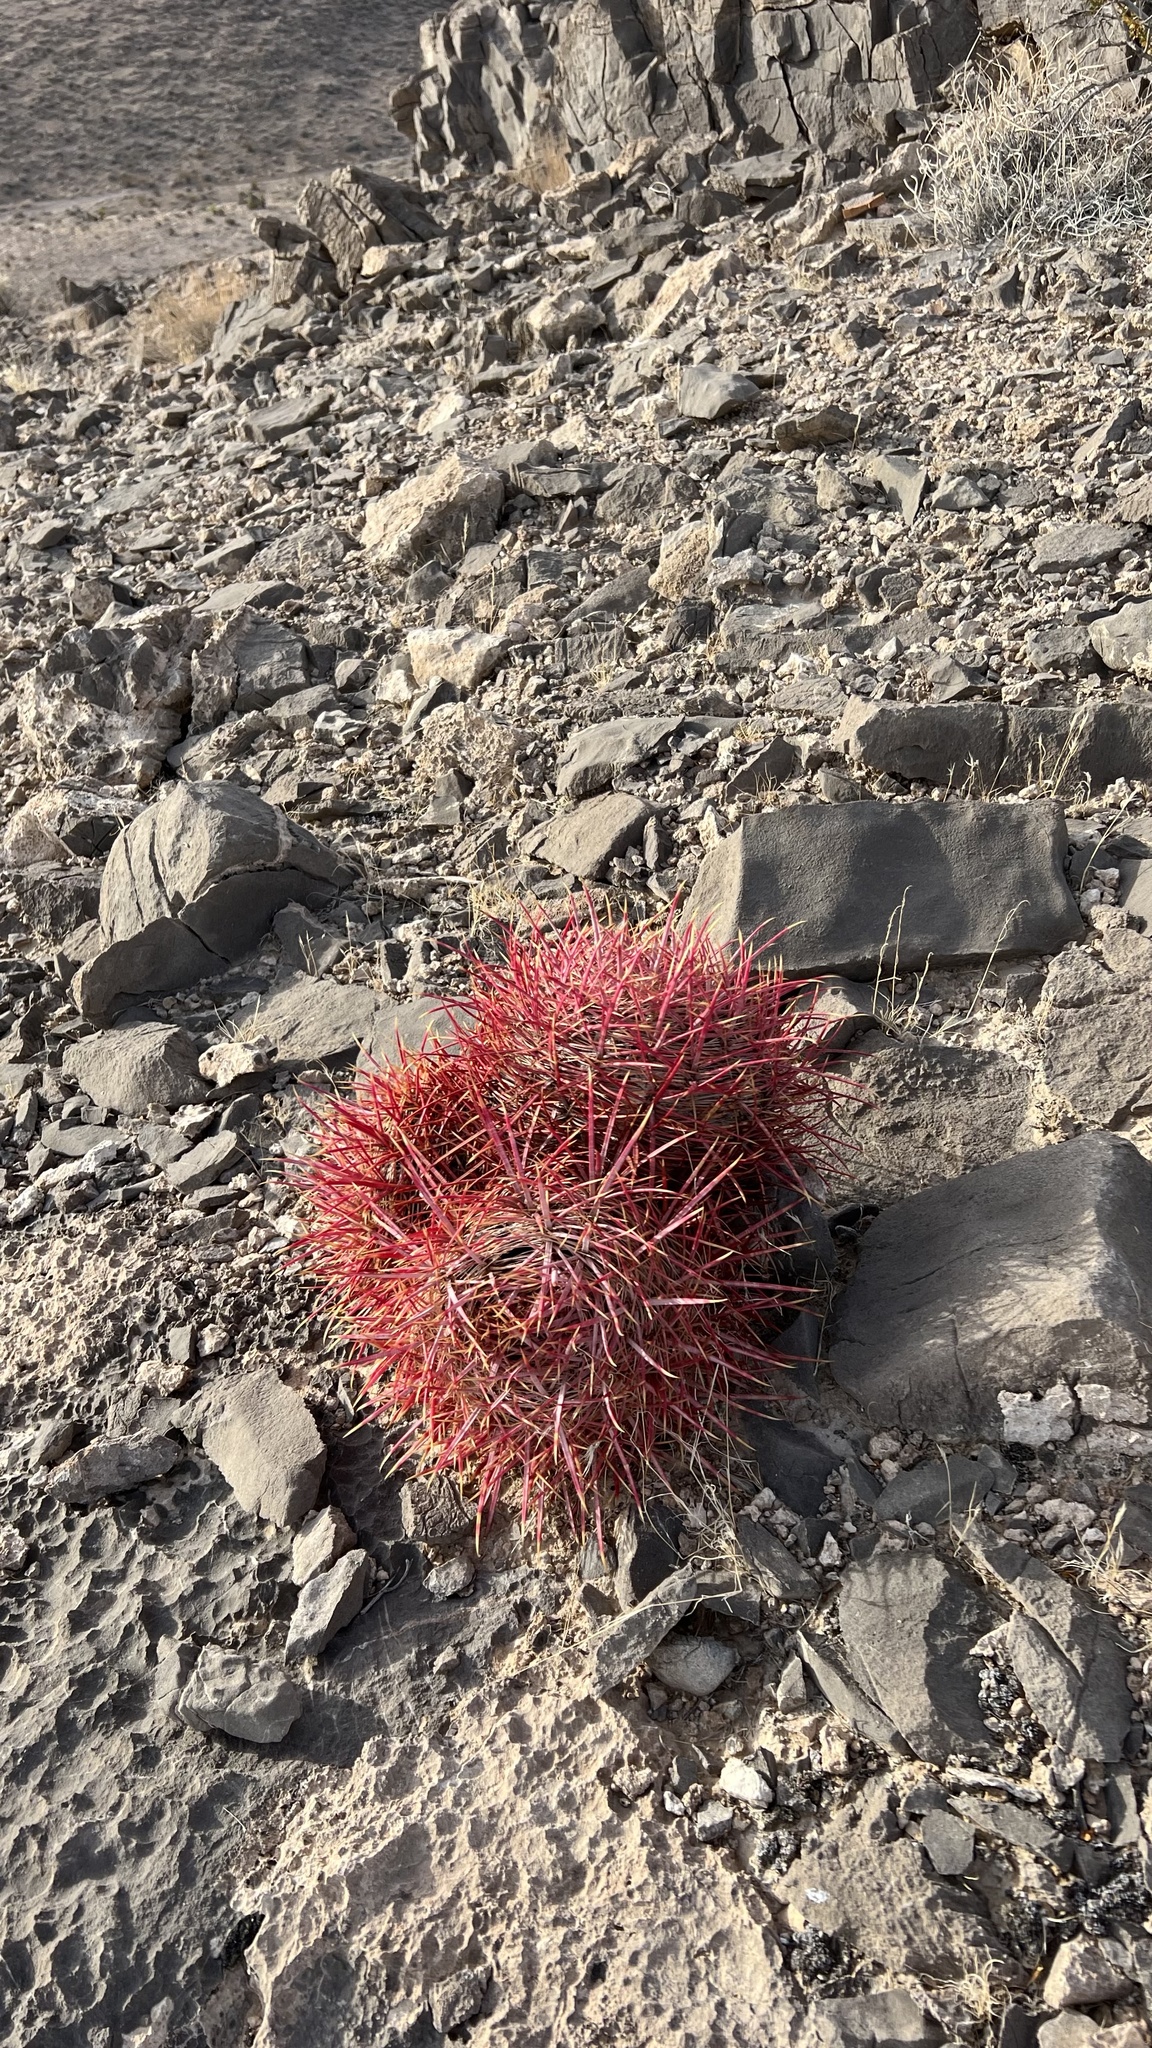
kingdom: Plantae
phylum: Tracheophyta
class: Magnoliopsida
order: Caryophyllales
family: Cactaceae
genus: Ferocactus
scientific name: Ferocactus cylindraceus
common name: California barrel cactus
